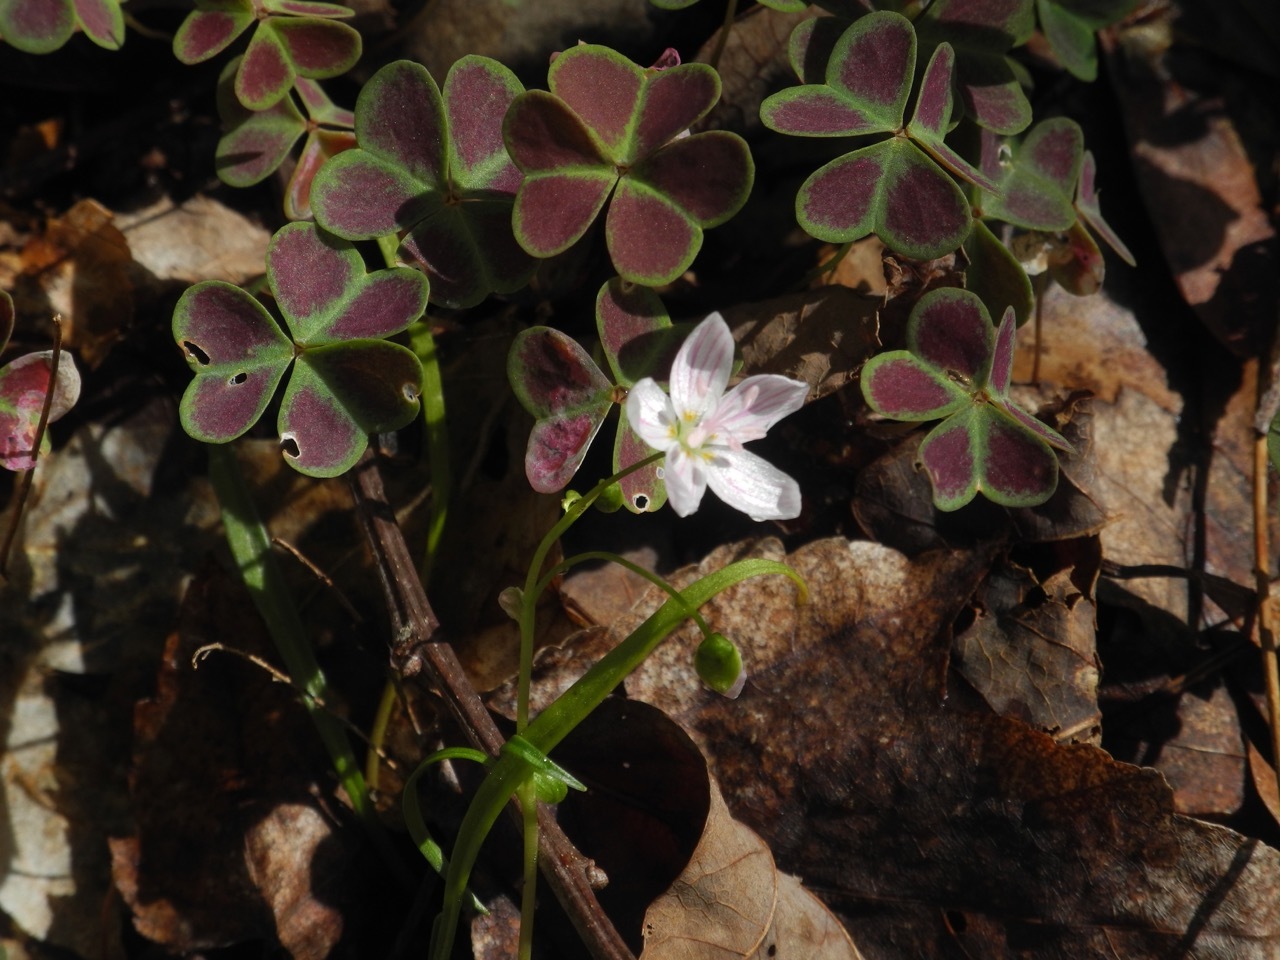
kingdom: Plantae
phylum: Tracheophyta
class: Magnoliopsida
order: Caryophyllales
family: Montiaceae
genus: Claytonia
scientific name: Claytonia virginica
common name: Virginia springbeauty
